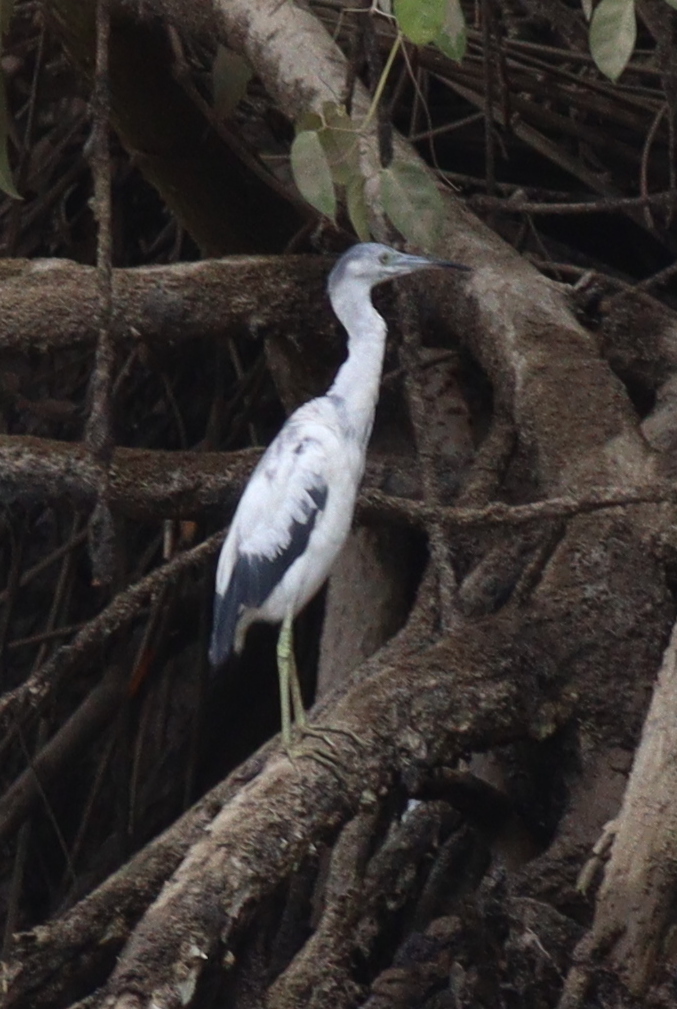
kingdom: Animalia
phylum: Chordata
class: Aves
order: Pelecaniformes
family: Ardeidae
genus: Egretta
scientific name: Egretta caerulea
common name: Little blue heron
